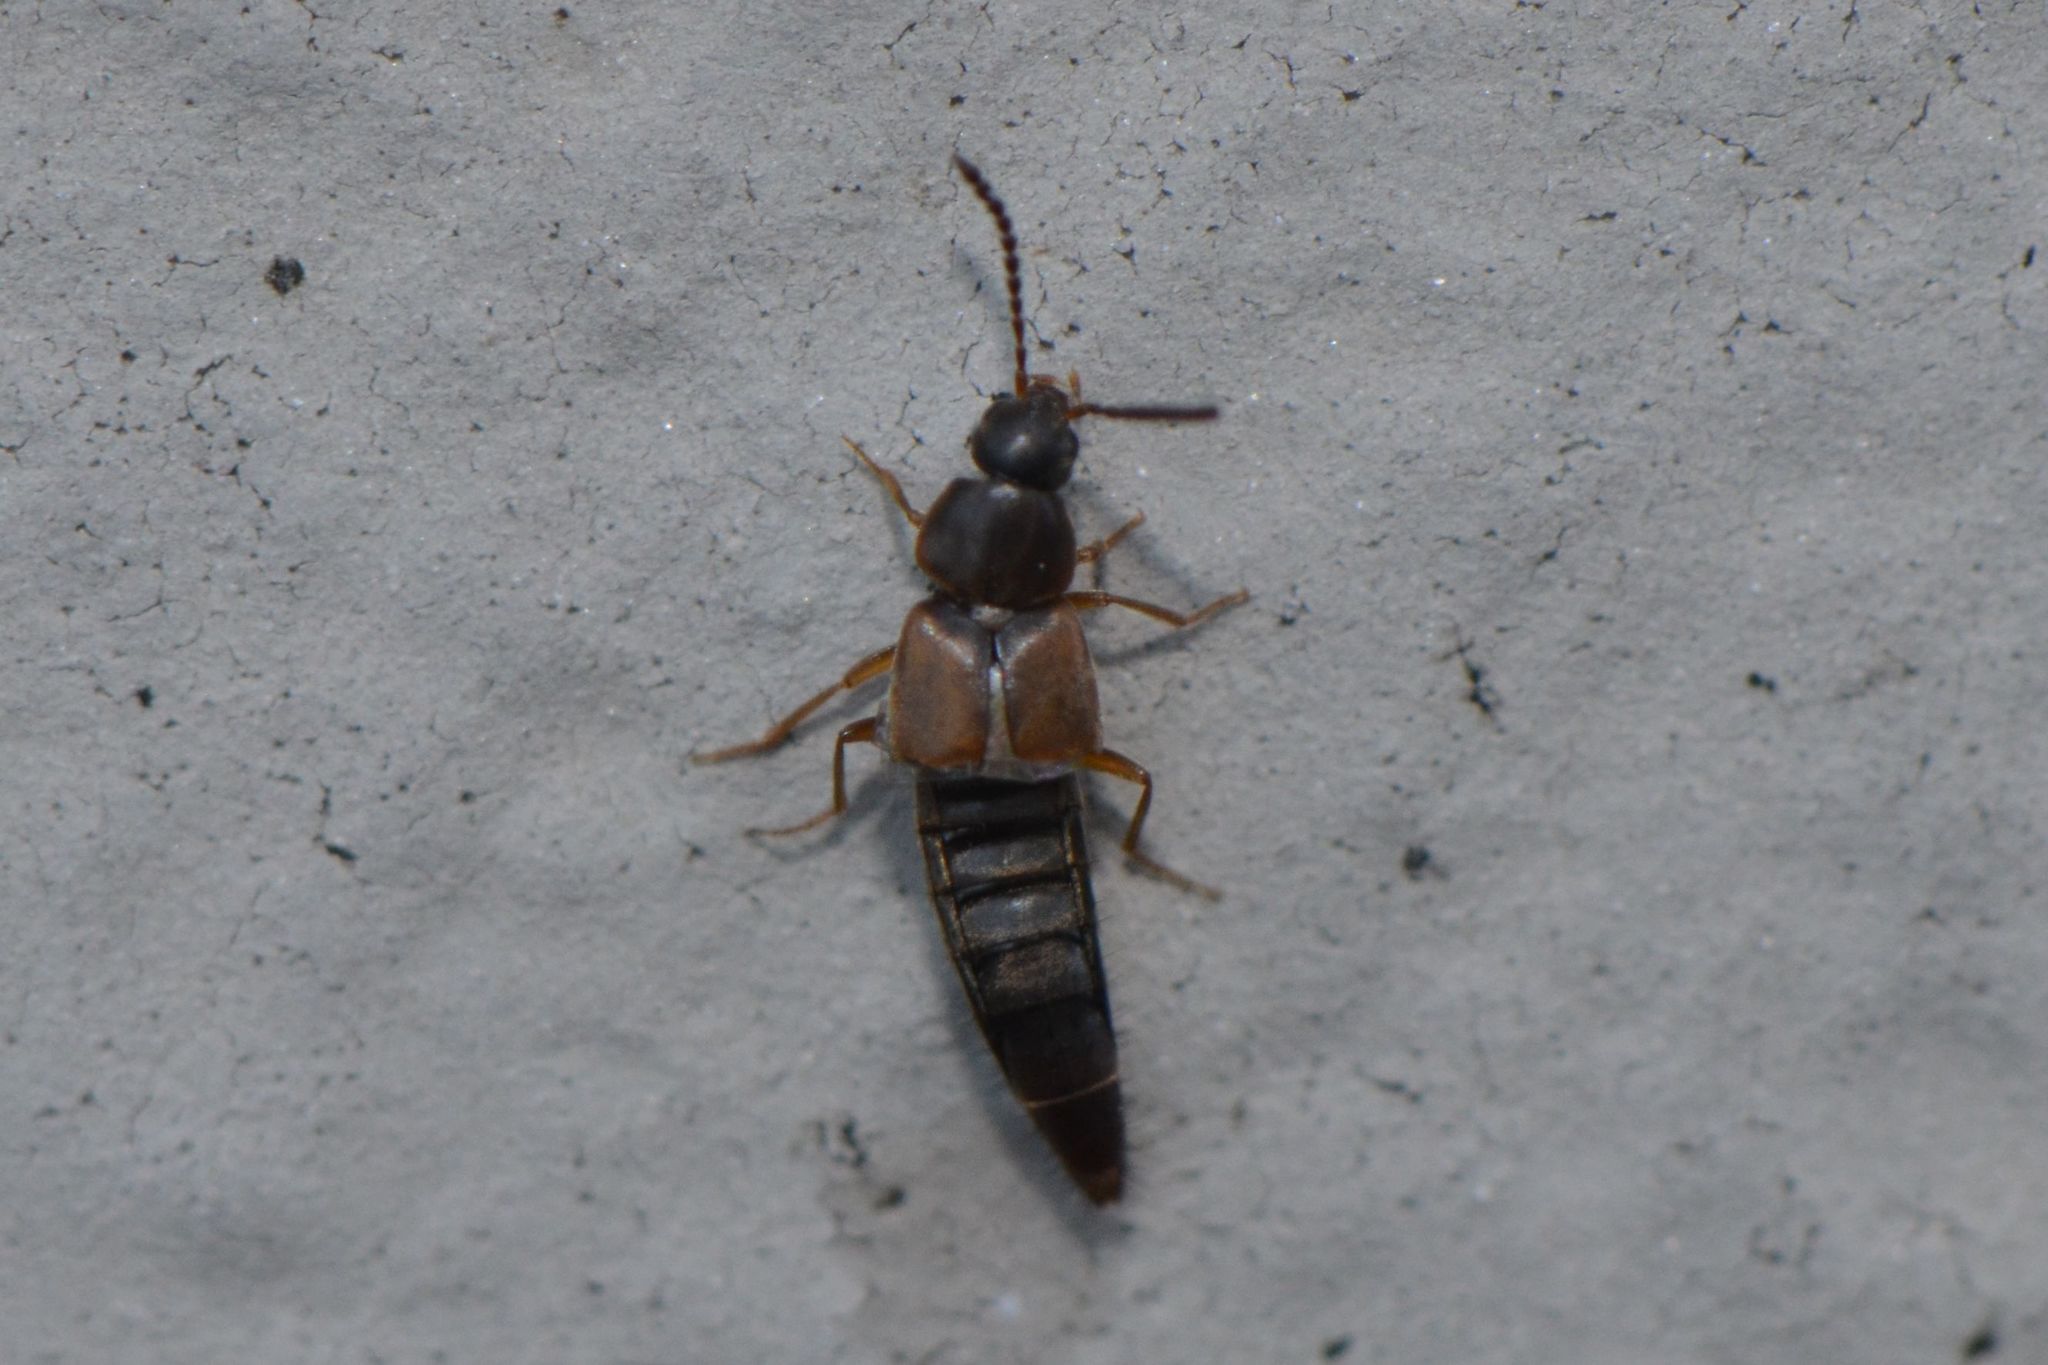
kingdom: Animalia
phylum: Arthropoda
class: Insecta
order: Coleoptera
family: Staphylinidae
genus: Oxypoda
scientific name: Oxypoda acuminata
